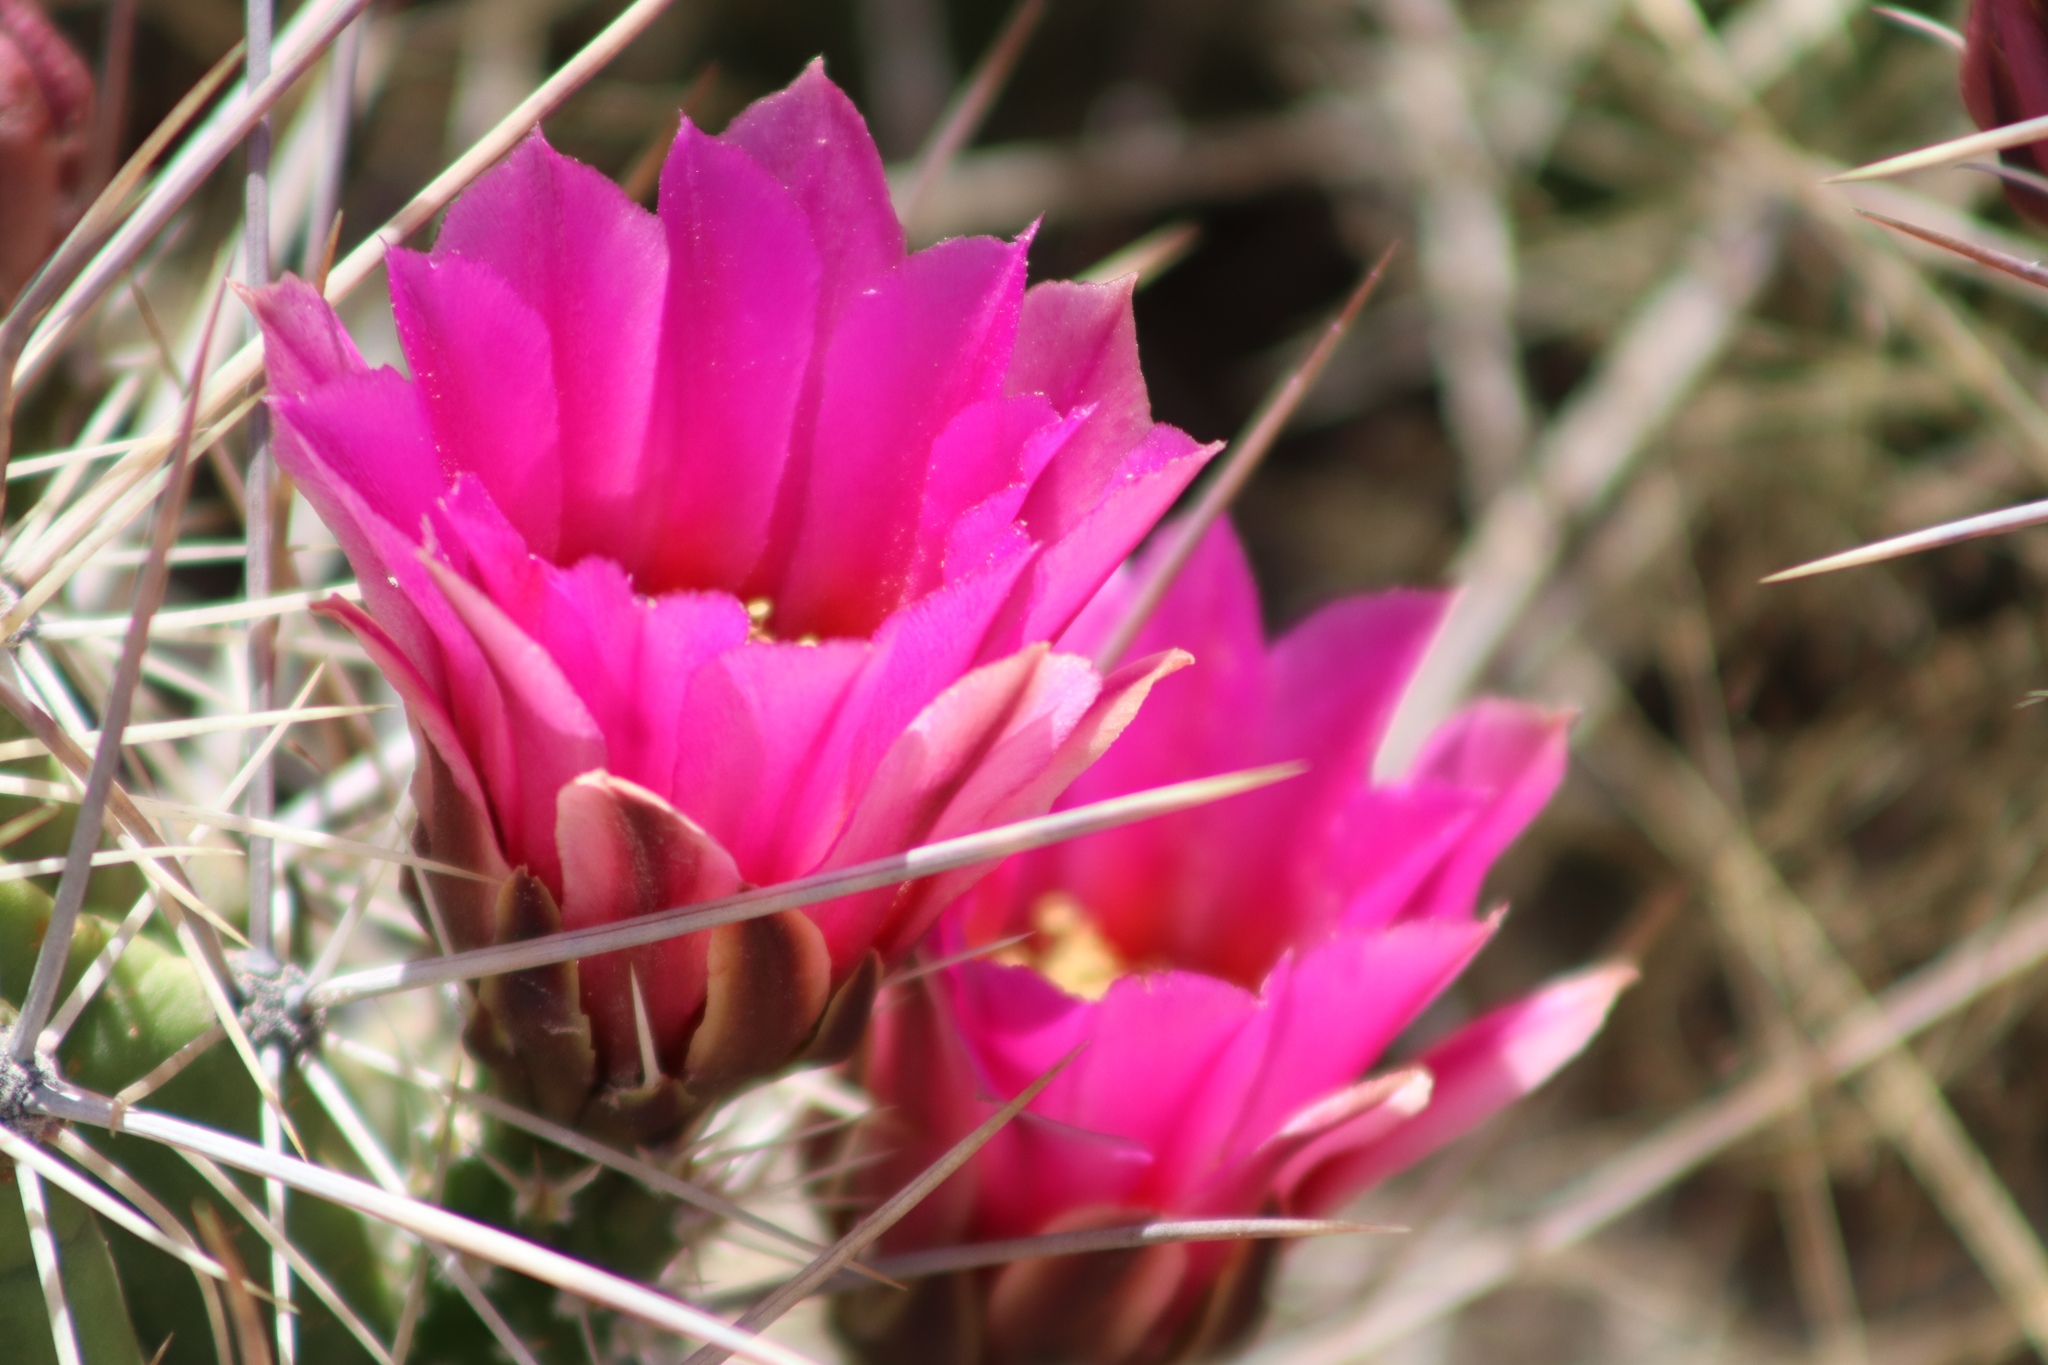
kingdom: Plantae
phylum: Tracheophyta
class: Magnoliopsida
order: Caryophyllales
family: Cactaceae
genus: Echinocereus
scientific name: Echinocereus enneacanthus
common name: Pitaya
